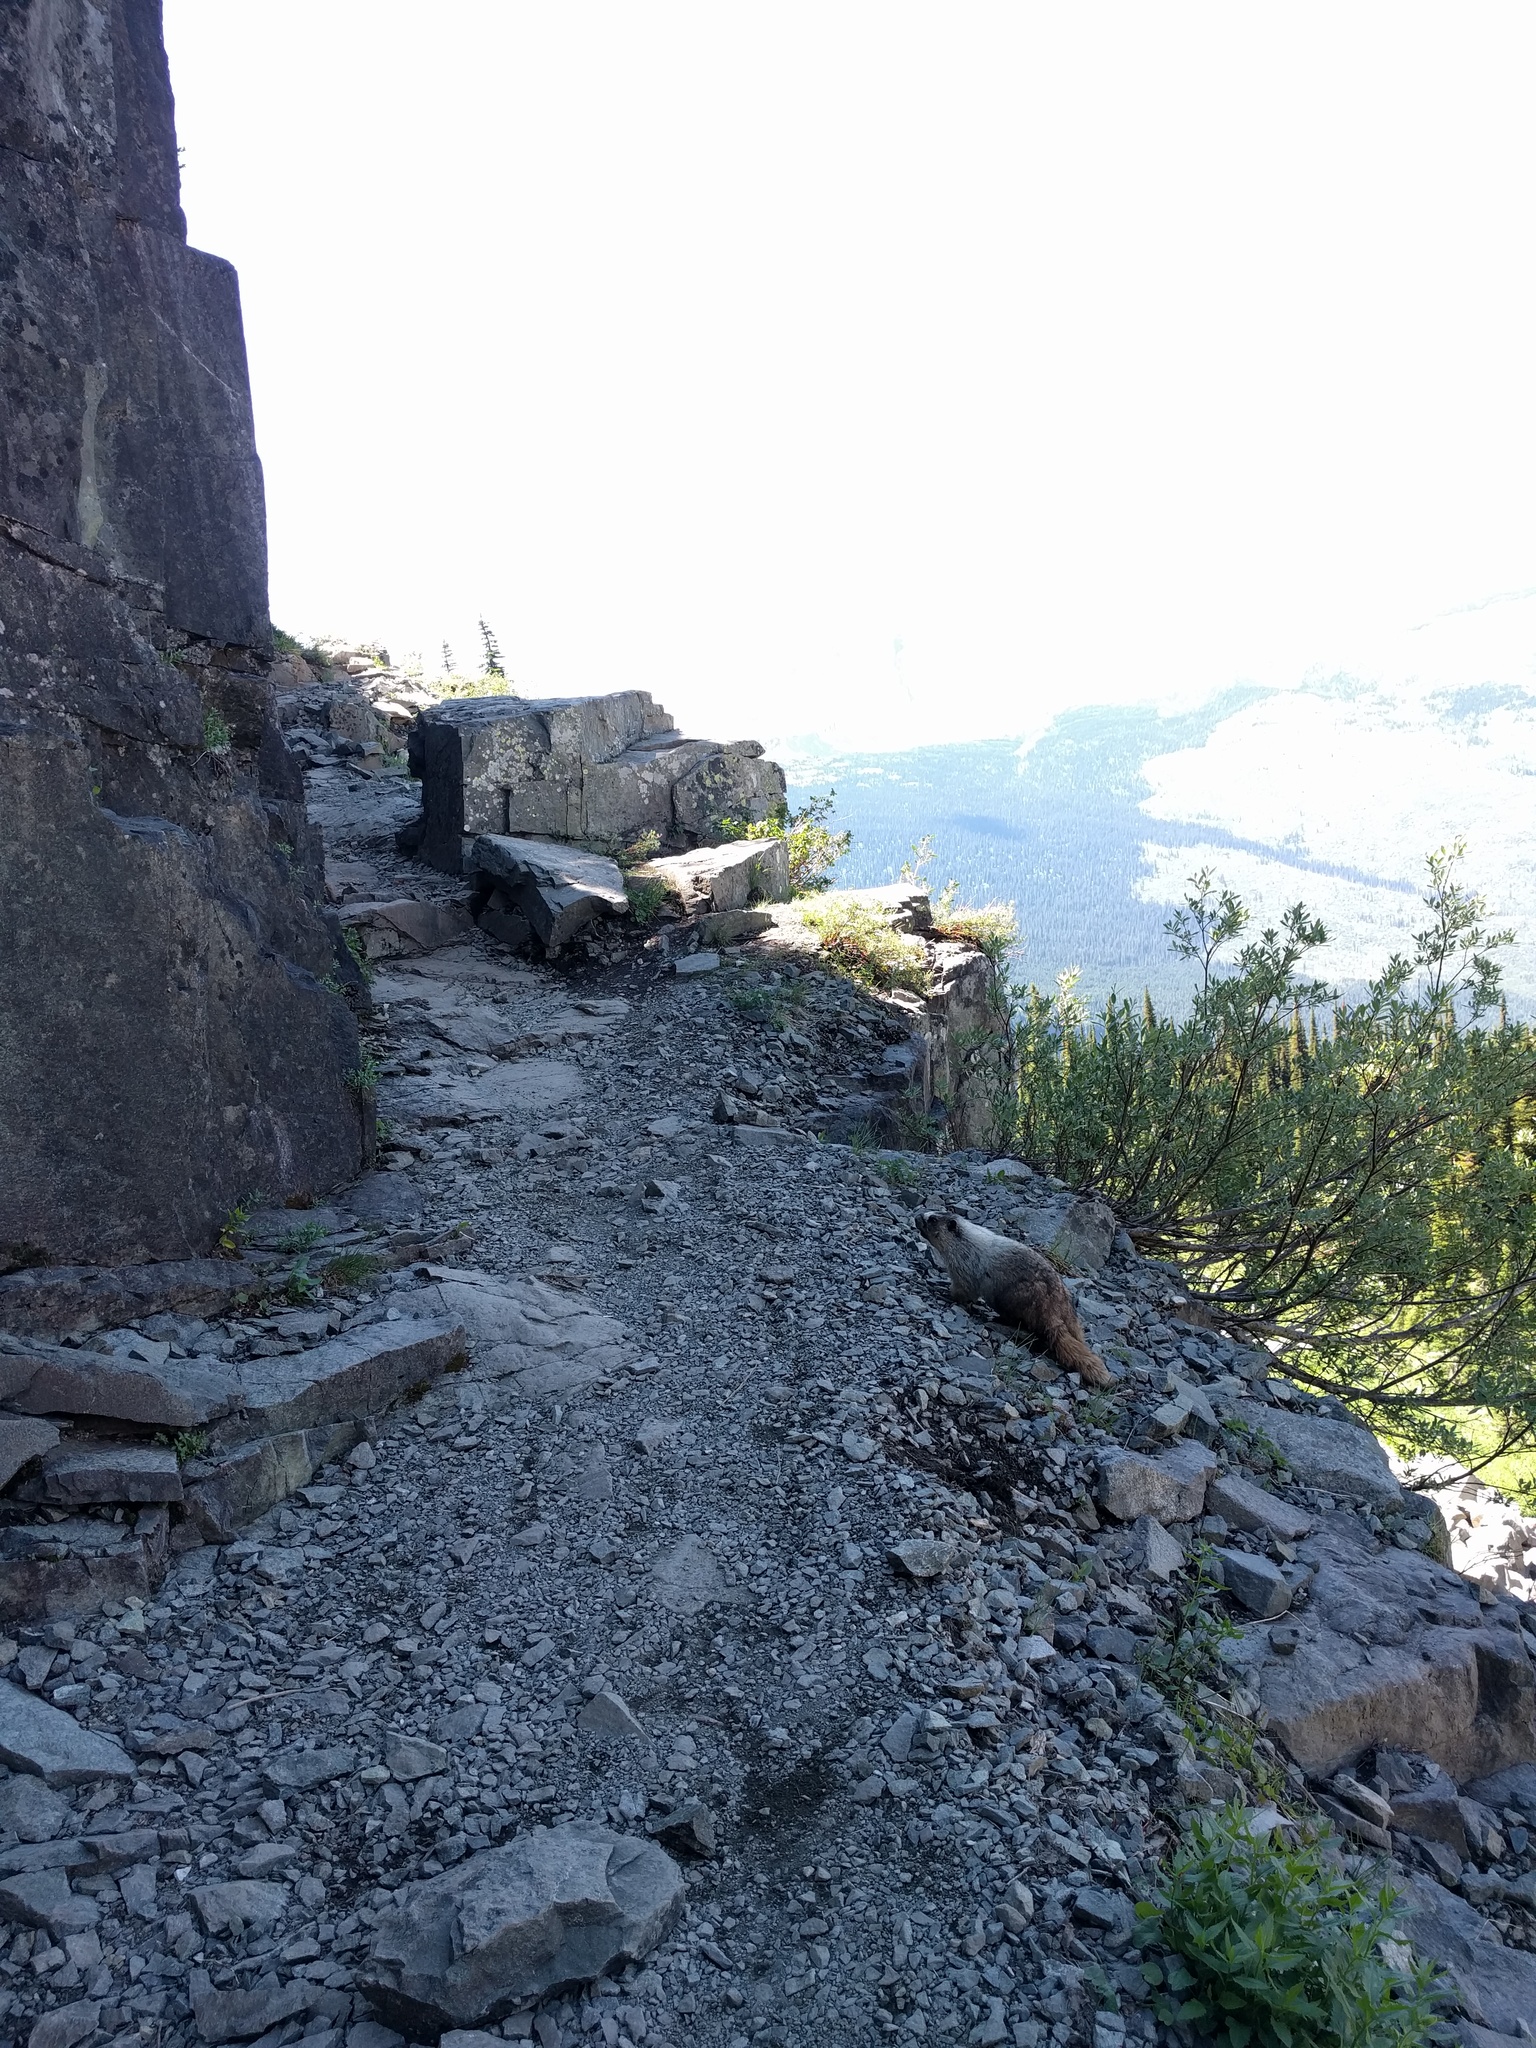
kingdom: Animalia
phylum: Chordata
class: Mammalia
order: Rodentia
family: Sciuridae
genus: Marmota
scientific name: Marmota caligata
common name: Hoary marmot
